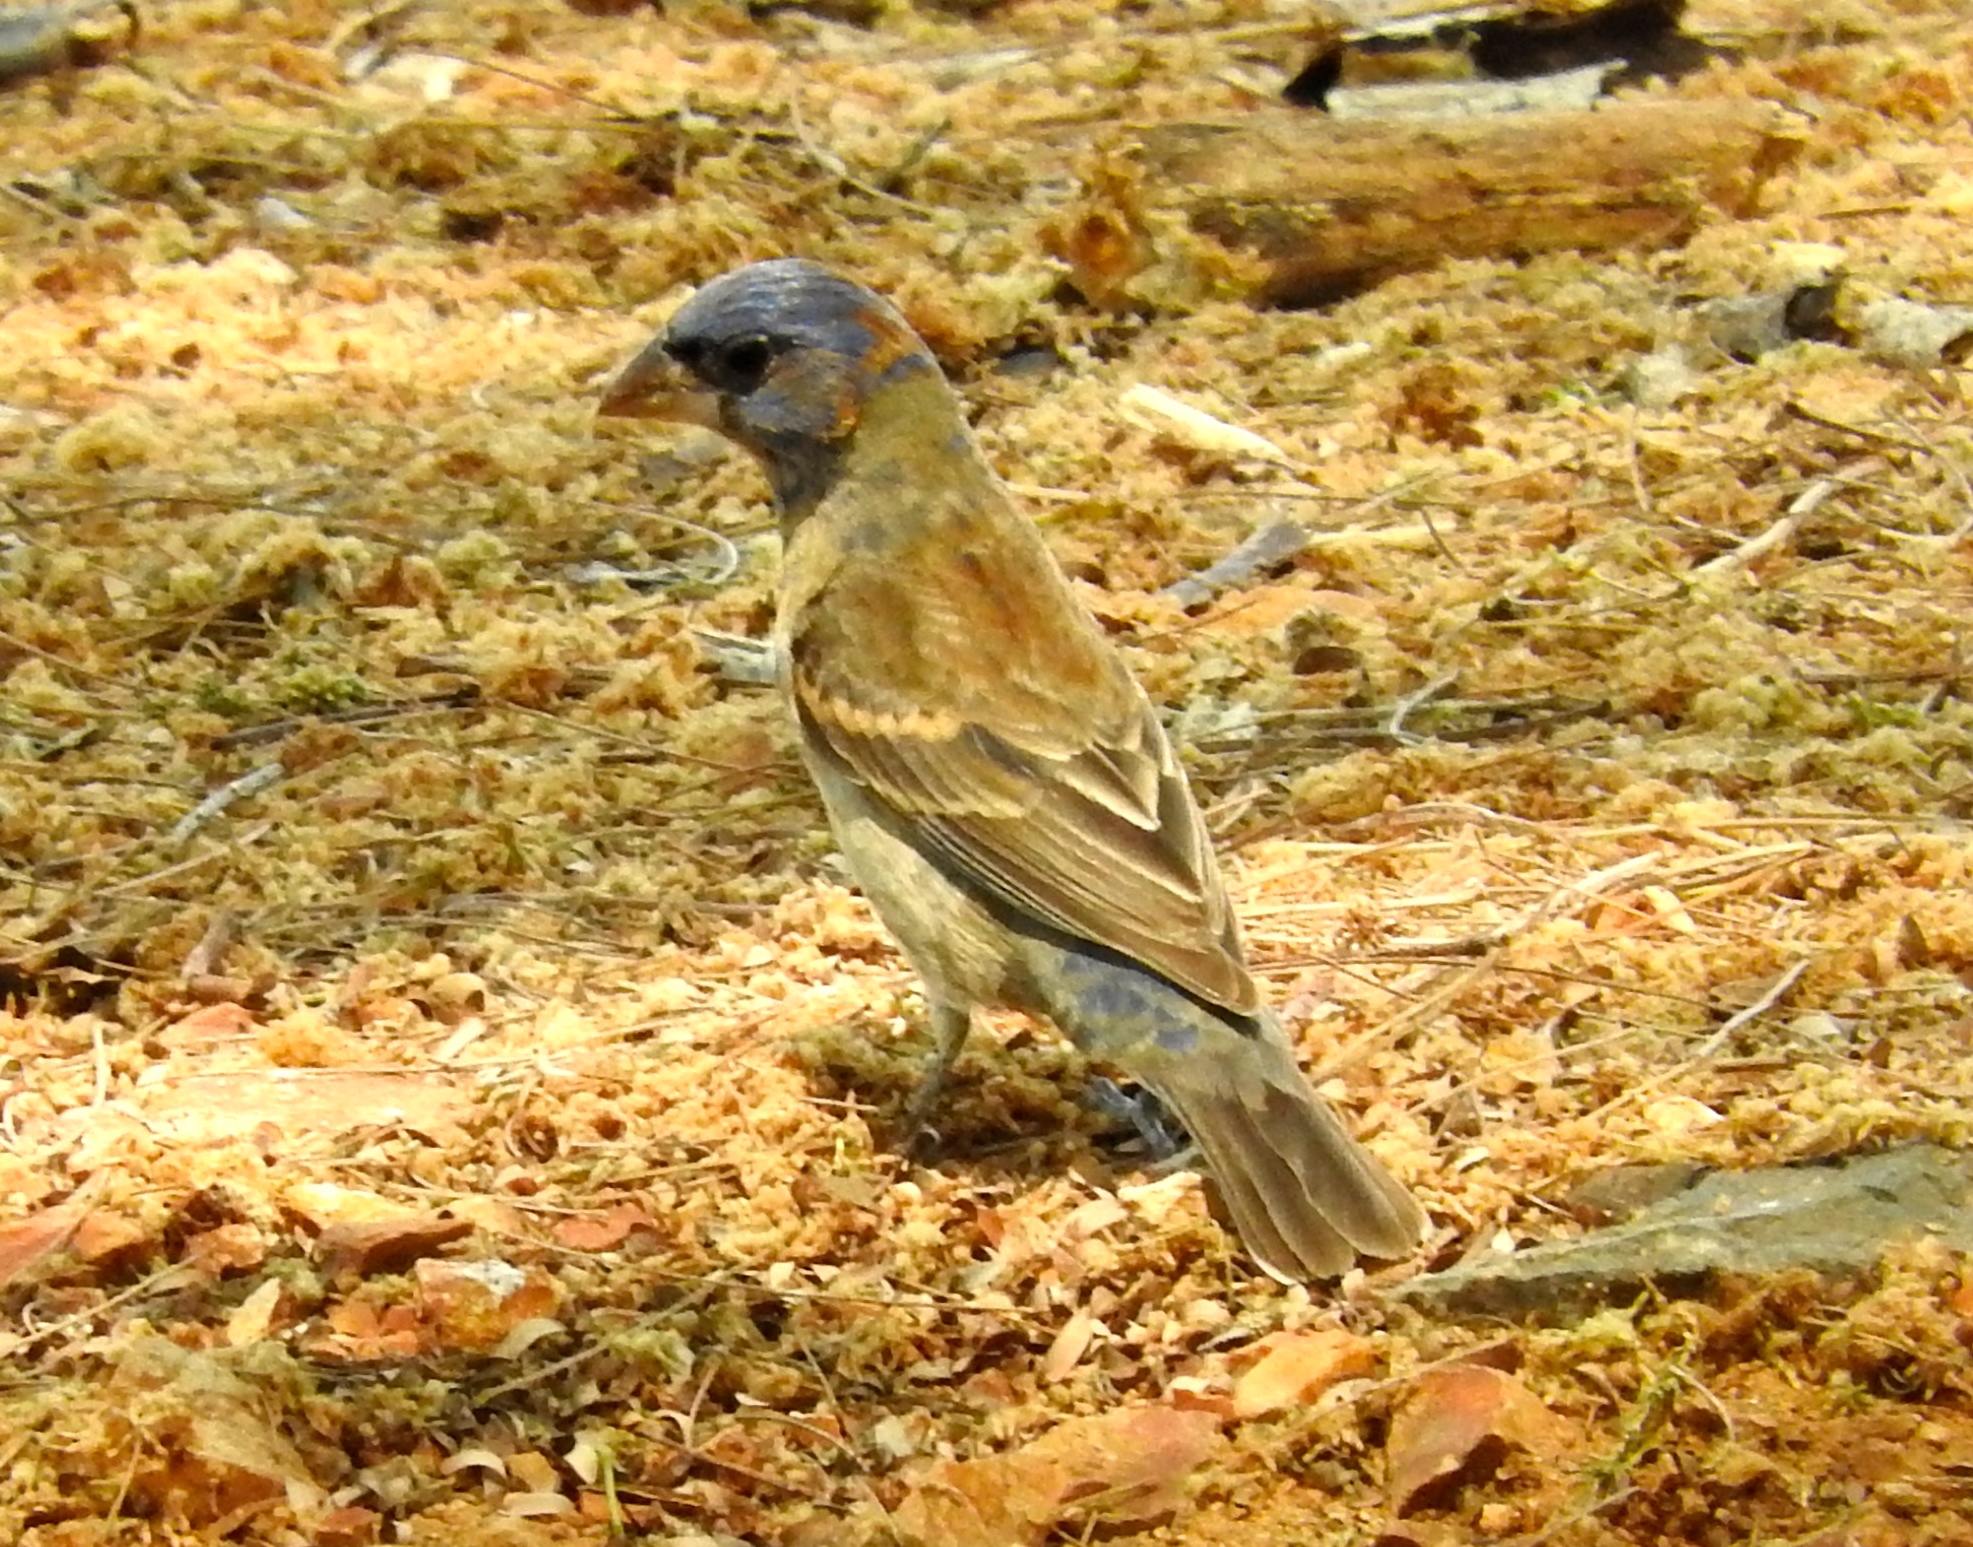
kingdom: Animalia
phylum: Chordata
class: Aves
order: Passeriformes
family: Cardinalidae
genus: Passerina
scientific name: Passerina caerulea
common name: Blue grosbeak
